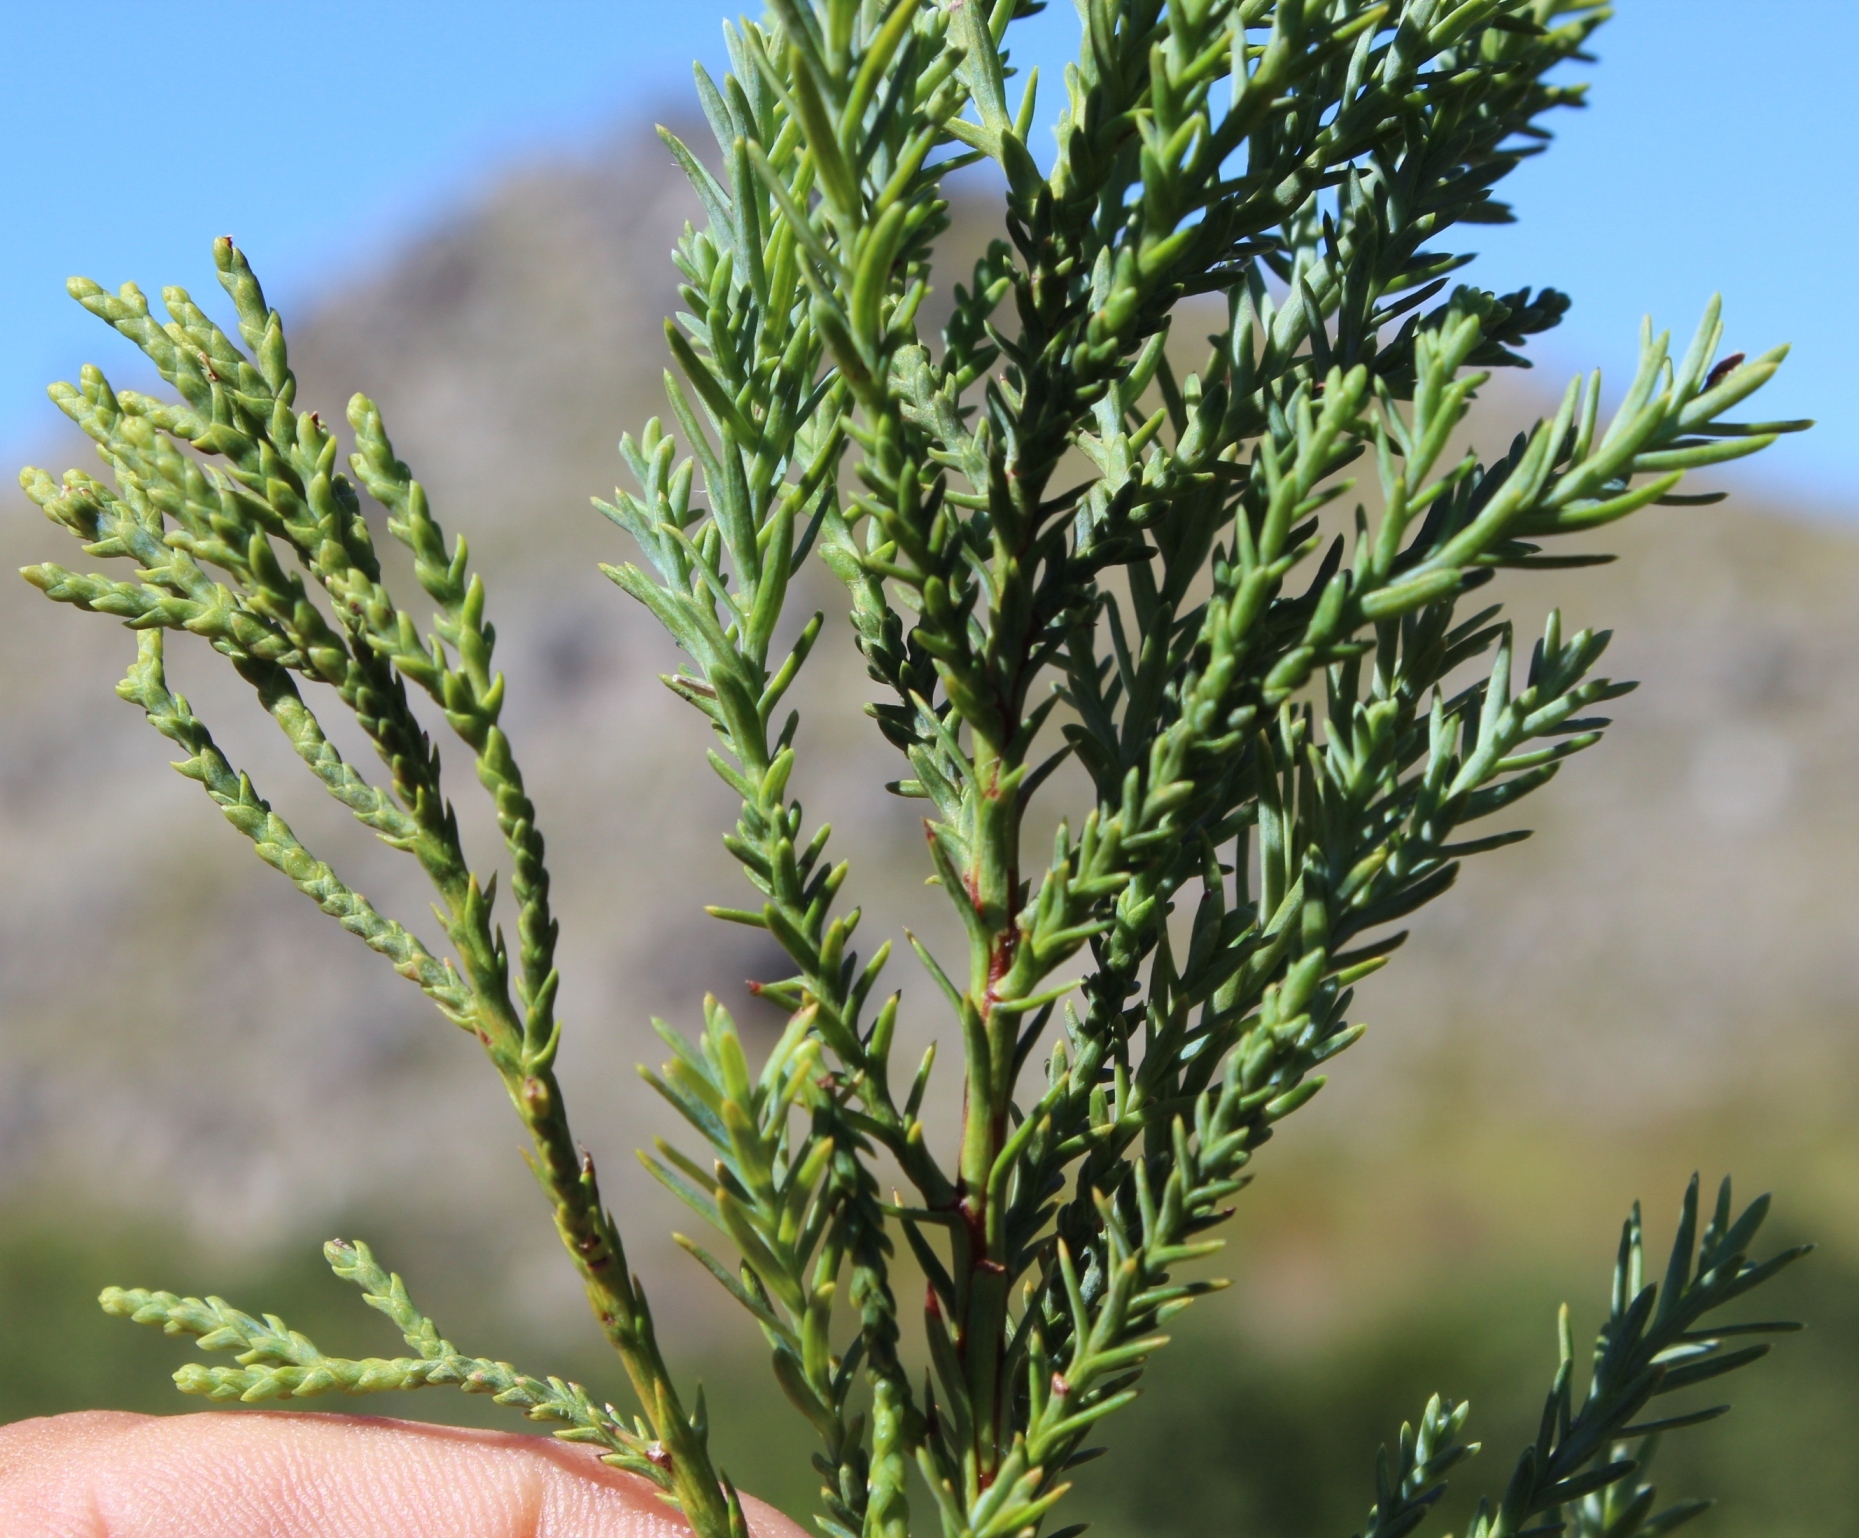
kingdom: Plantae
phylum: Tracheophyta
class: Pinopsida
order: Pinales
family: Cupressaceae
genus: Widdringtonia
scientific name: Widdringtonia nodiflora
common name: Cape cypress
